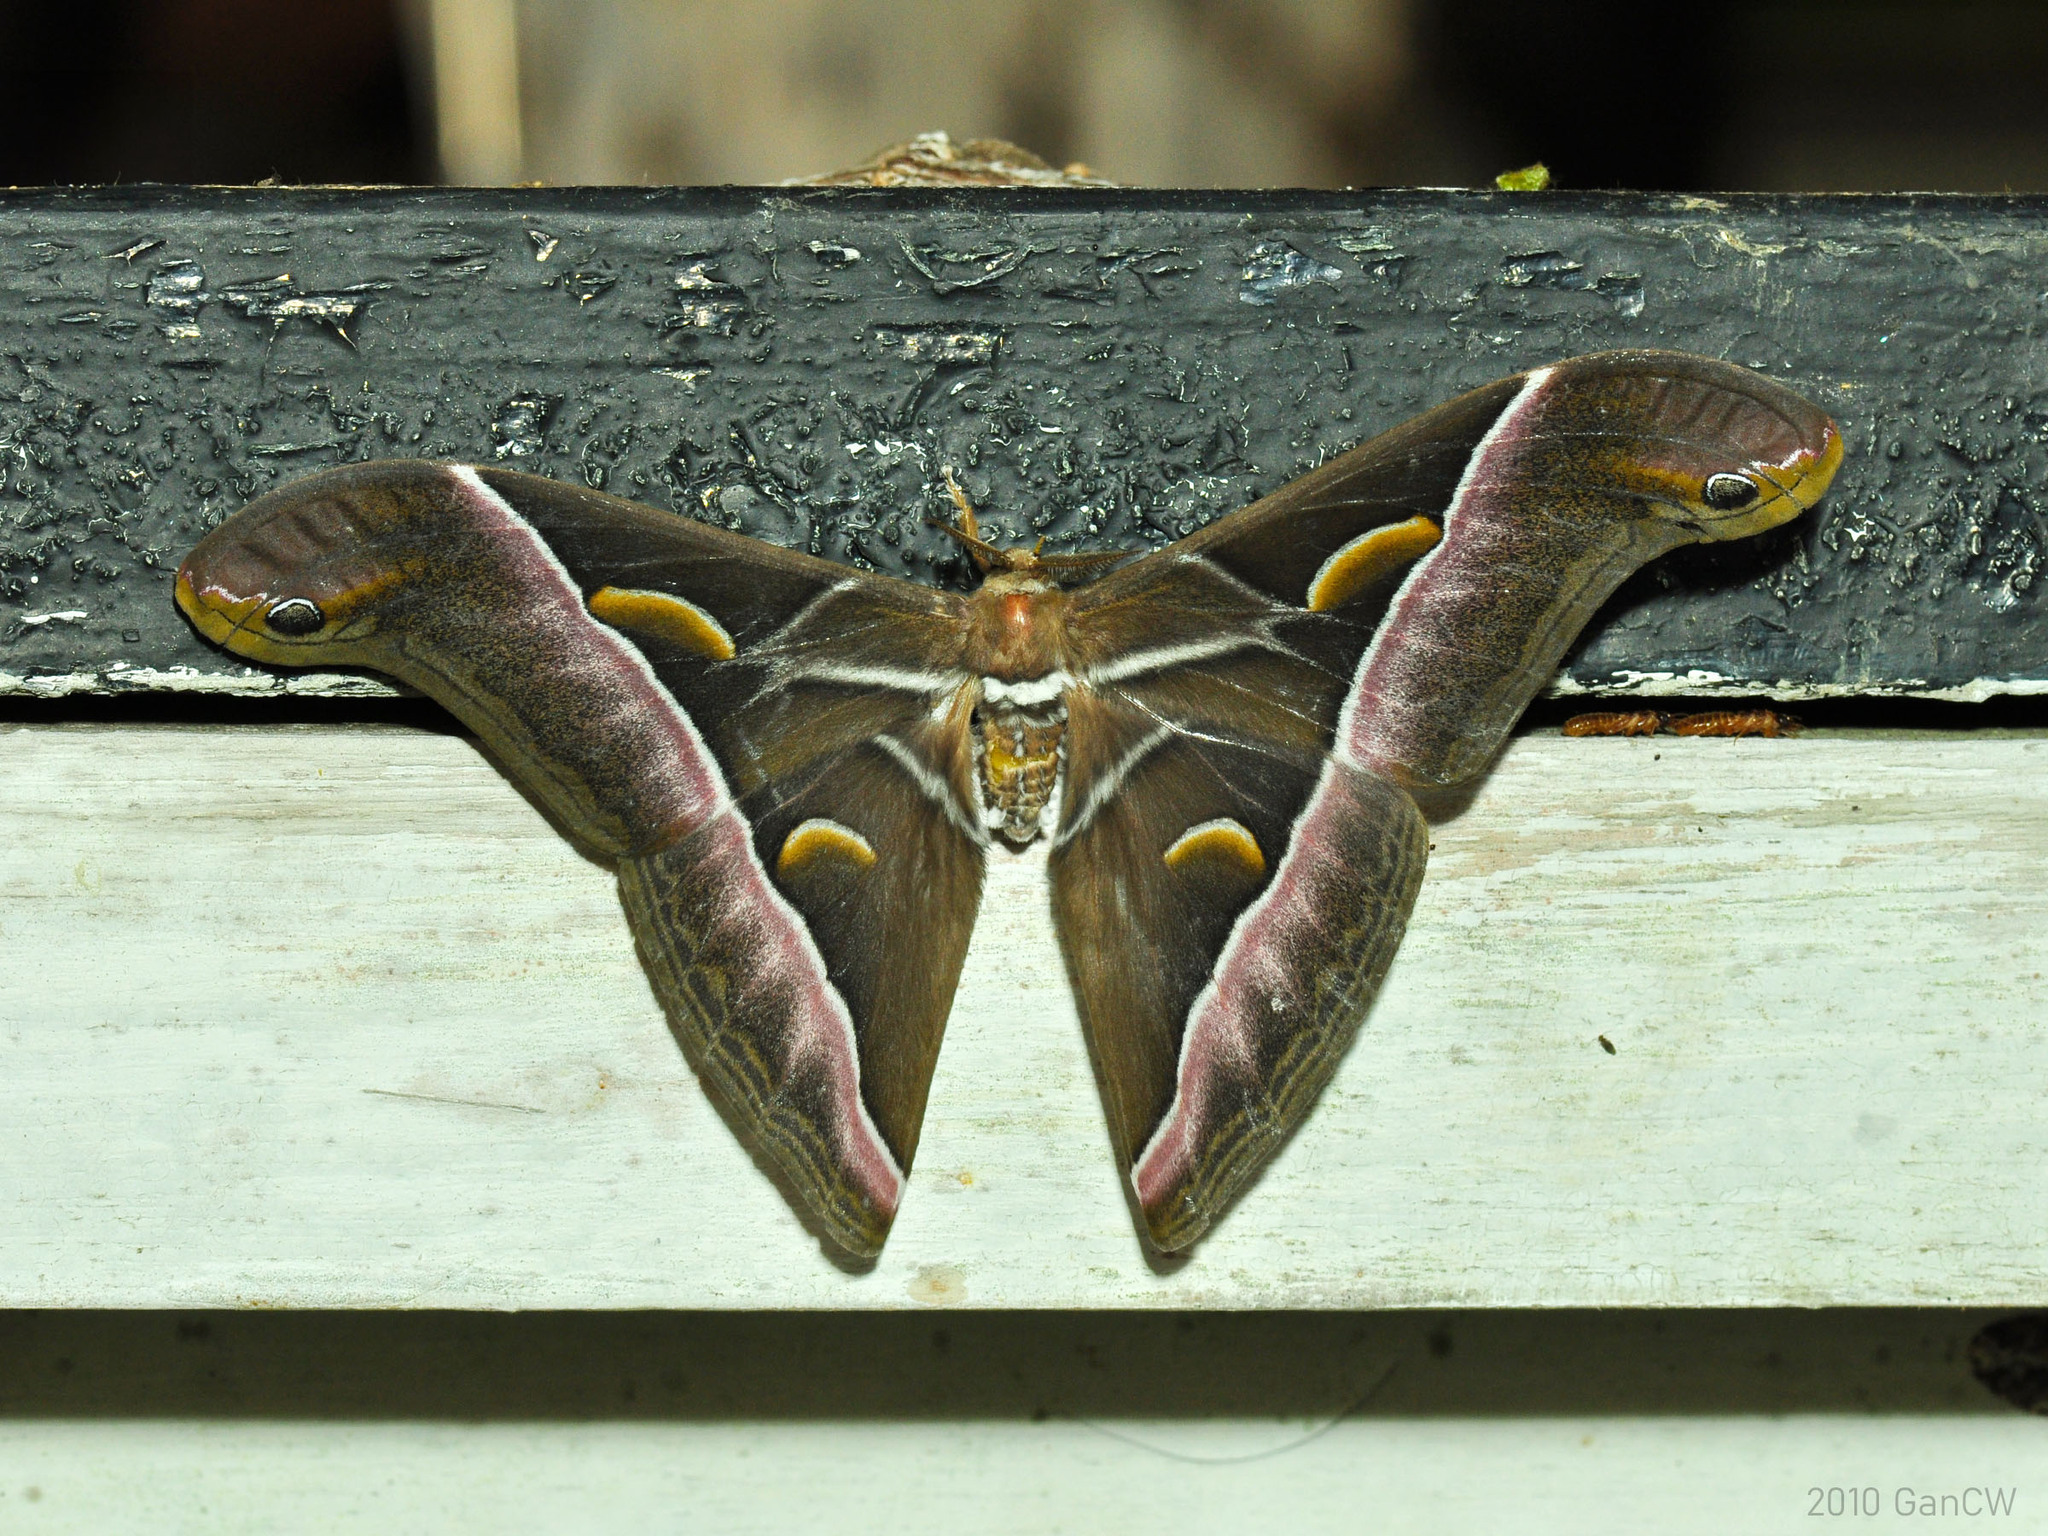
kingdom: Animalia
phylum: Arthropoda
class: Insecta
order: Lepidoptera
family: Saturniidae
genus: Samia
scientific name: Samia tetrica
